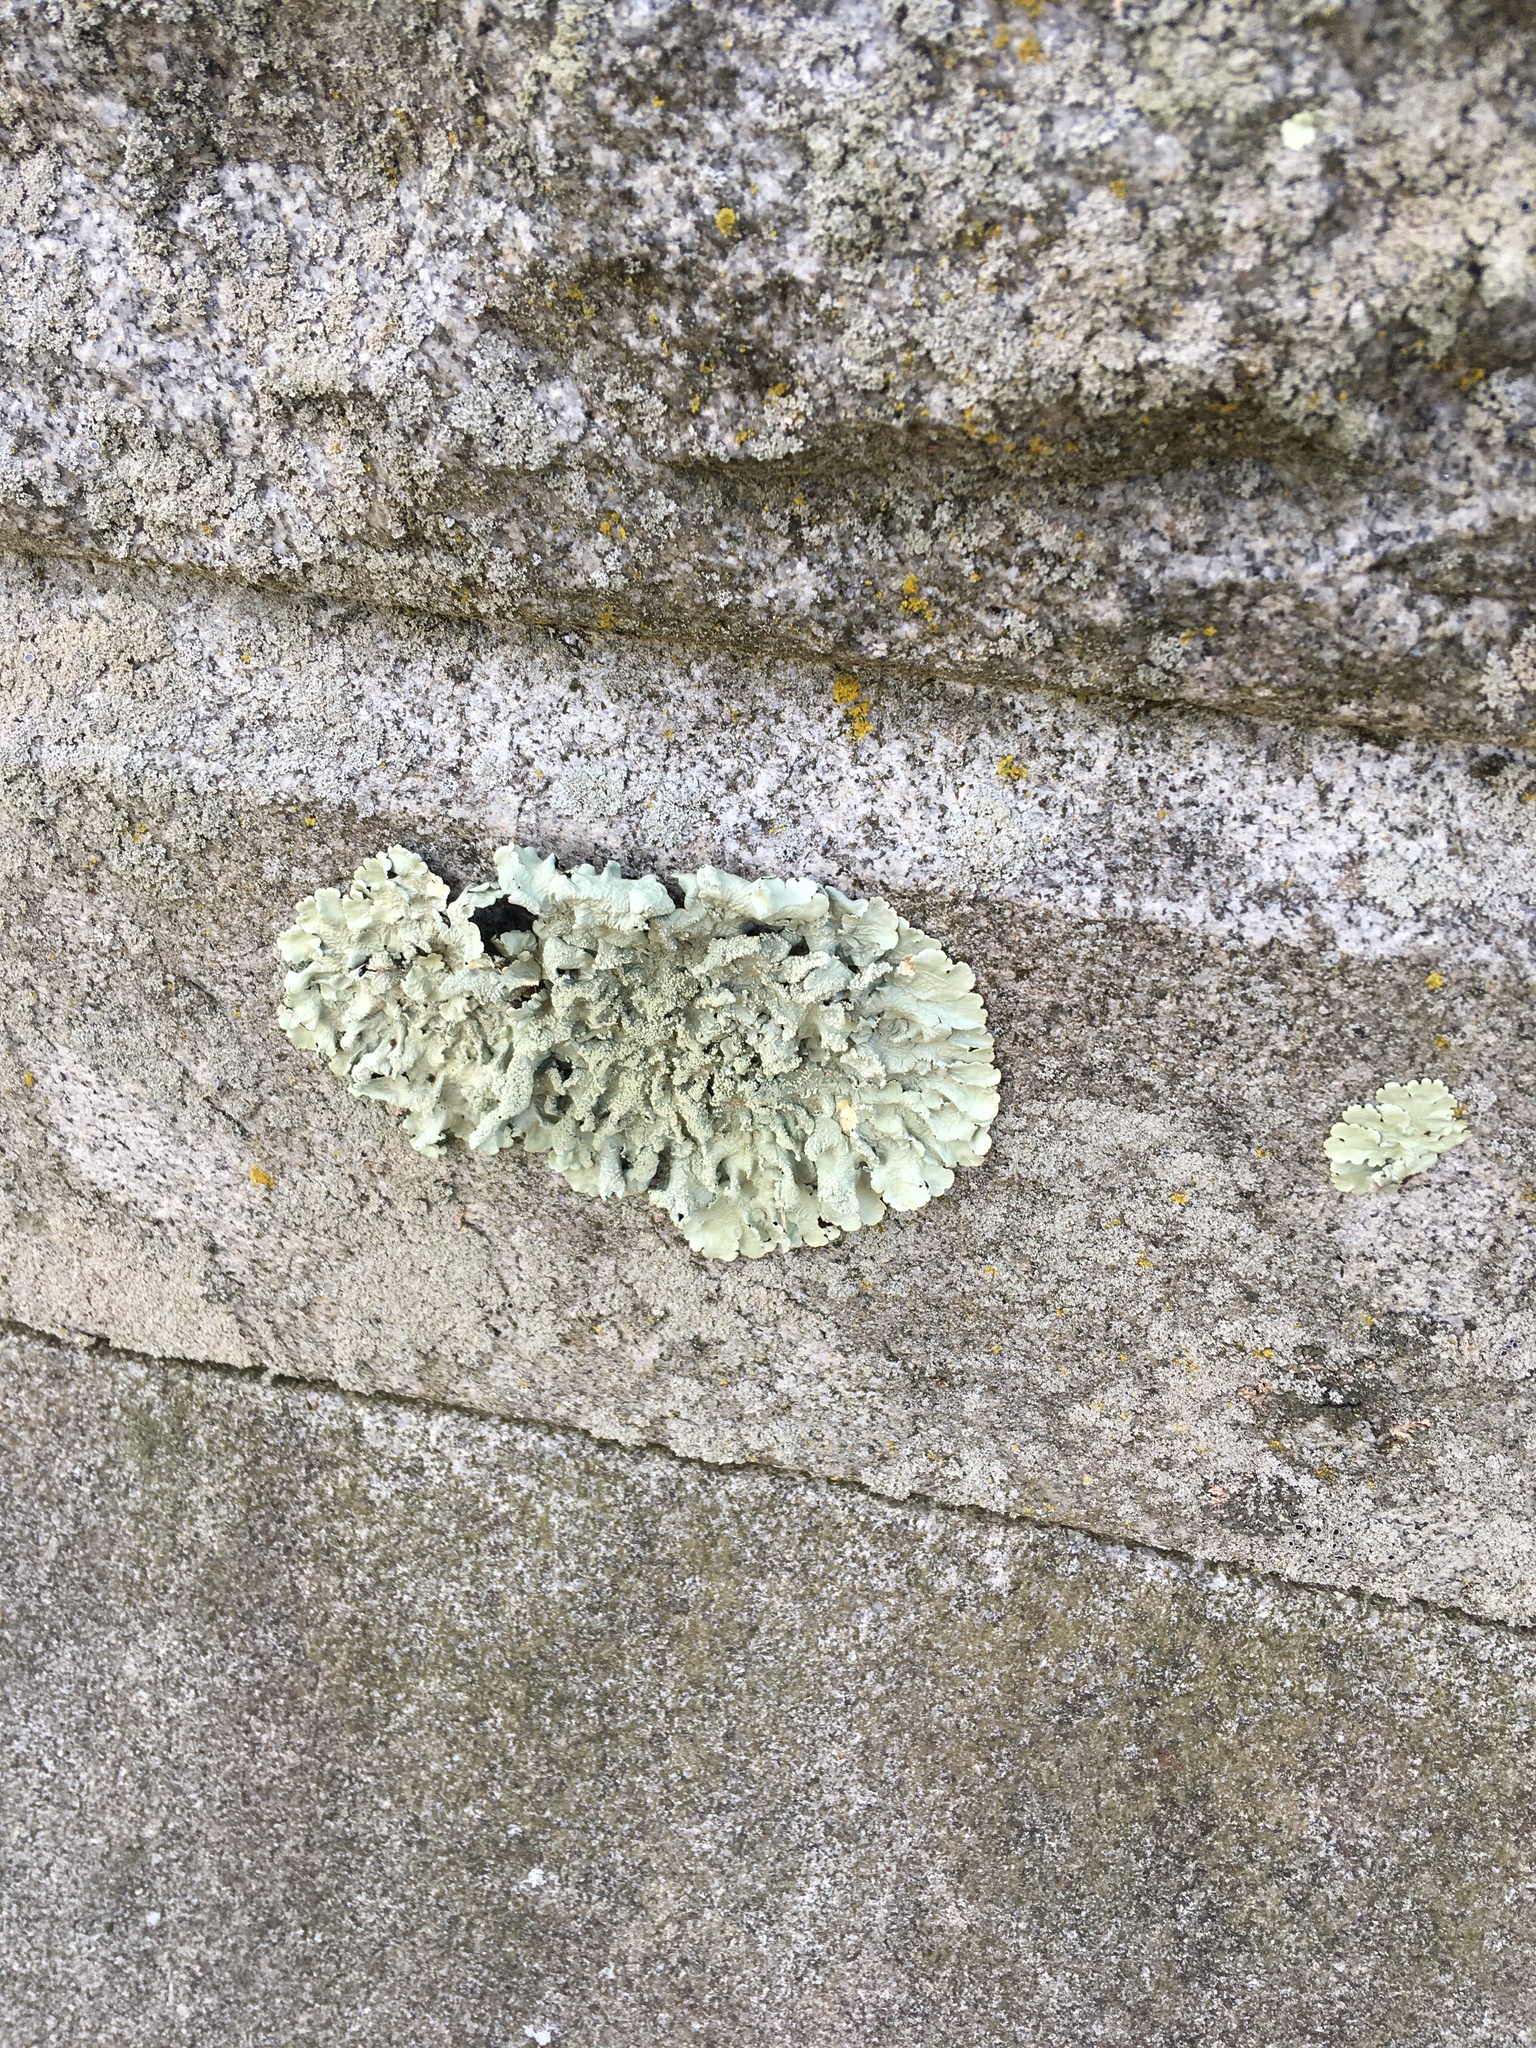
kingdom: Fungi
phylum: Ascomycota
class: Lecanoromycetes
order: Lecanorales
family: Parmeliaceae
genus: Flavoparmelia
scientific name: Flavoparmelia caperata
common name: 40-mile per hour lichen
